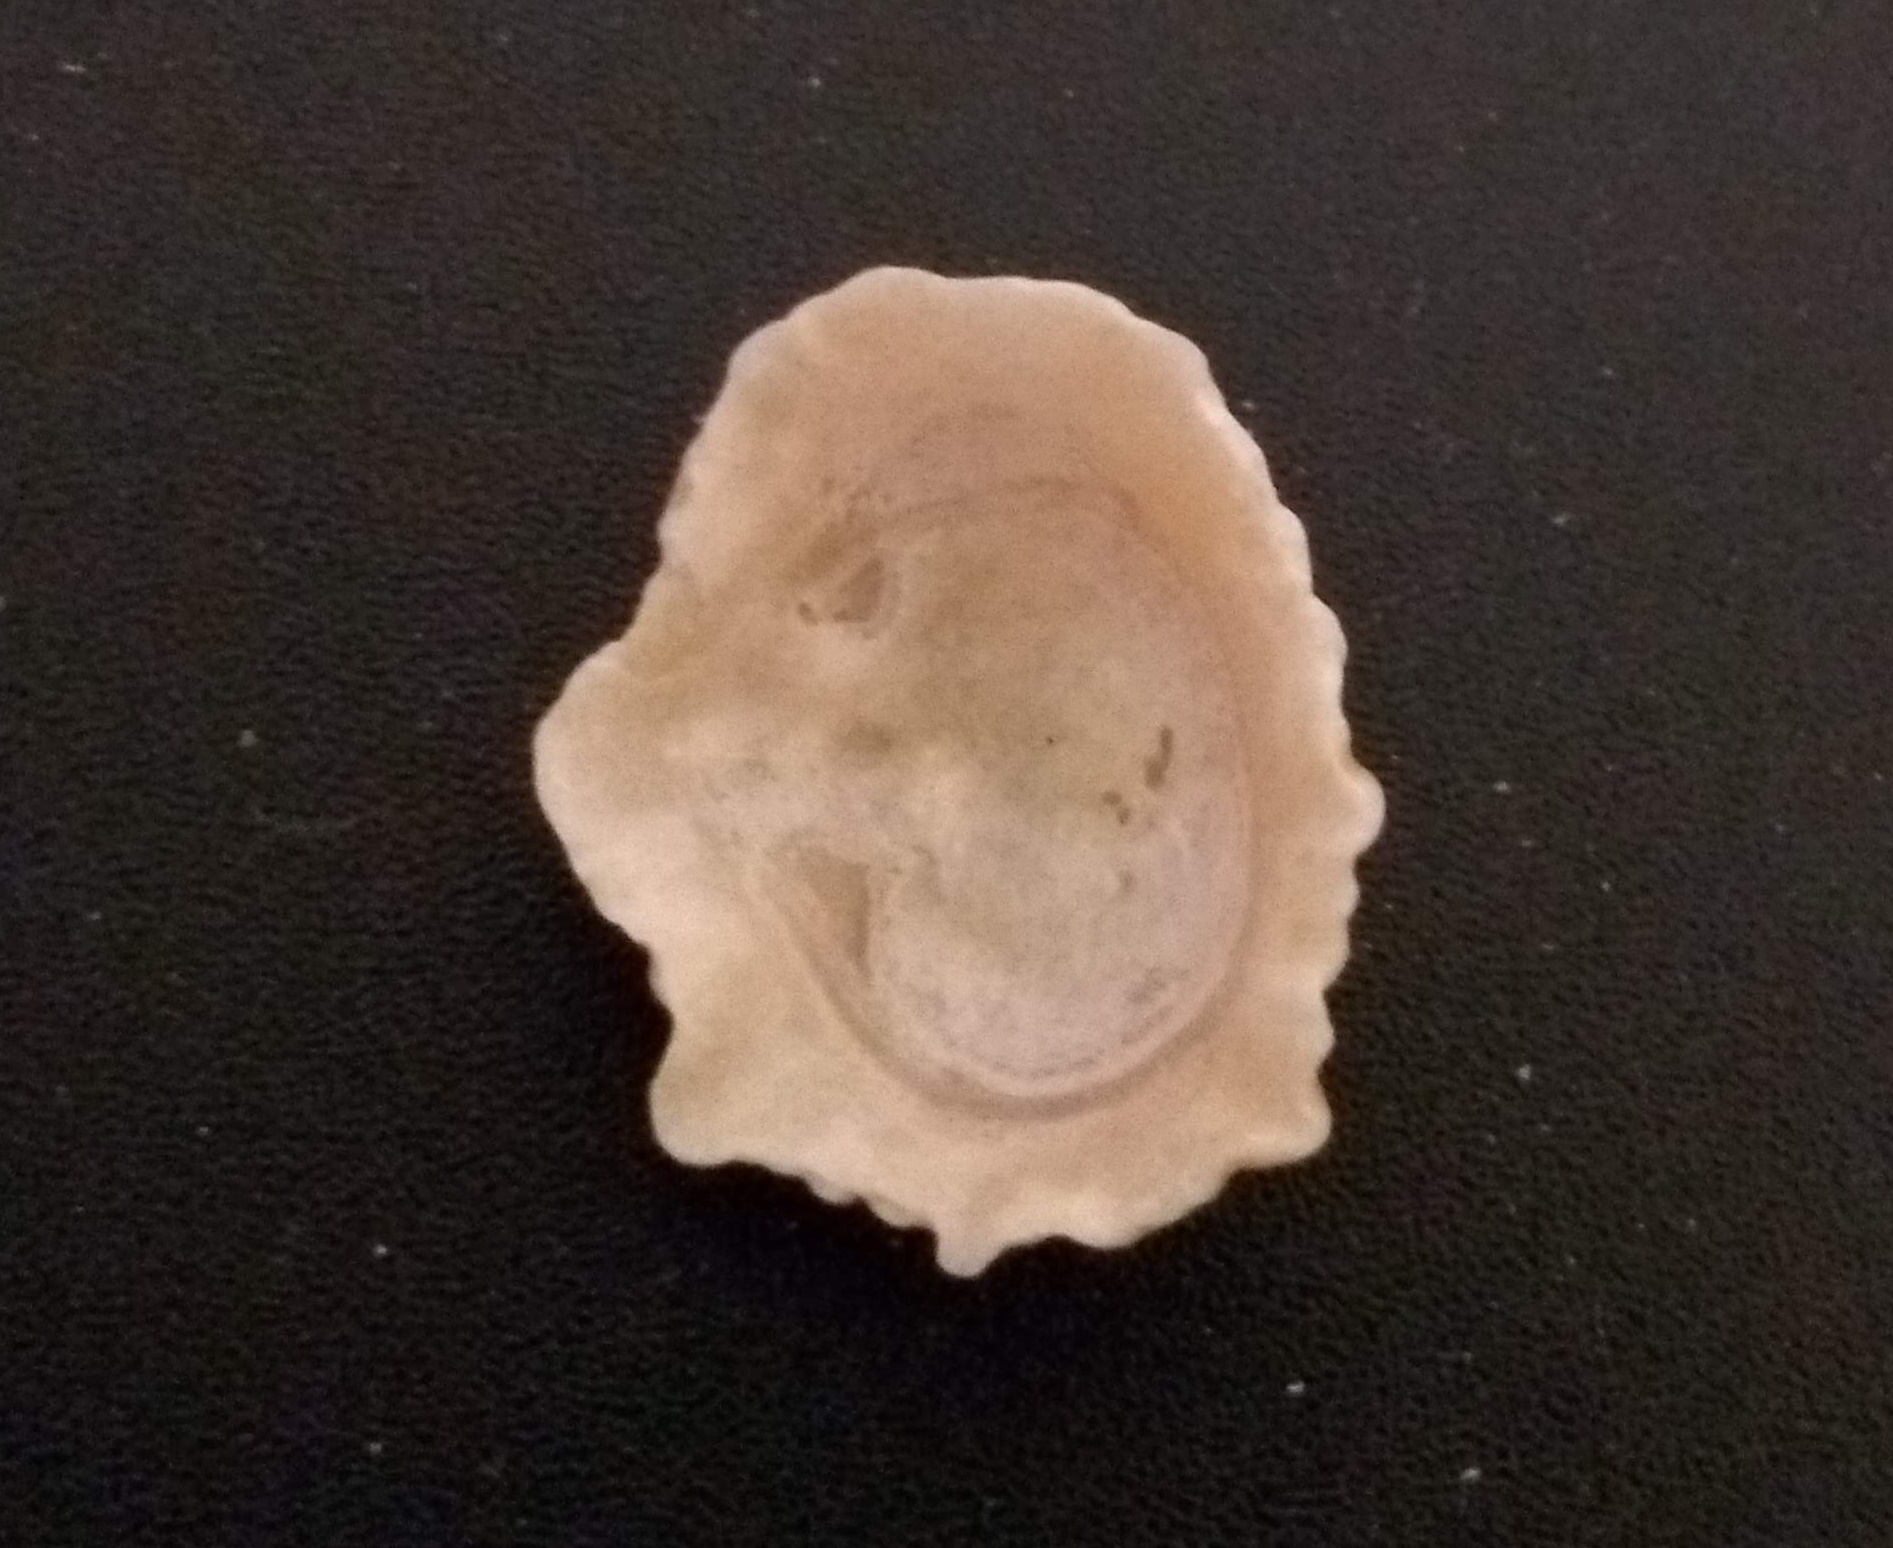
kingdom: Animalia
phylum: Mollusca
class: Gastropoda
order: Siphonariida
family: Siphonariidae
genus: Siphonaria
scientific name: Siphonaria hispida
